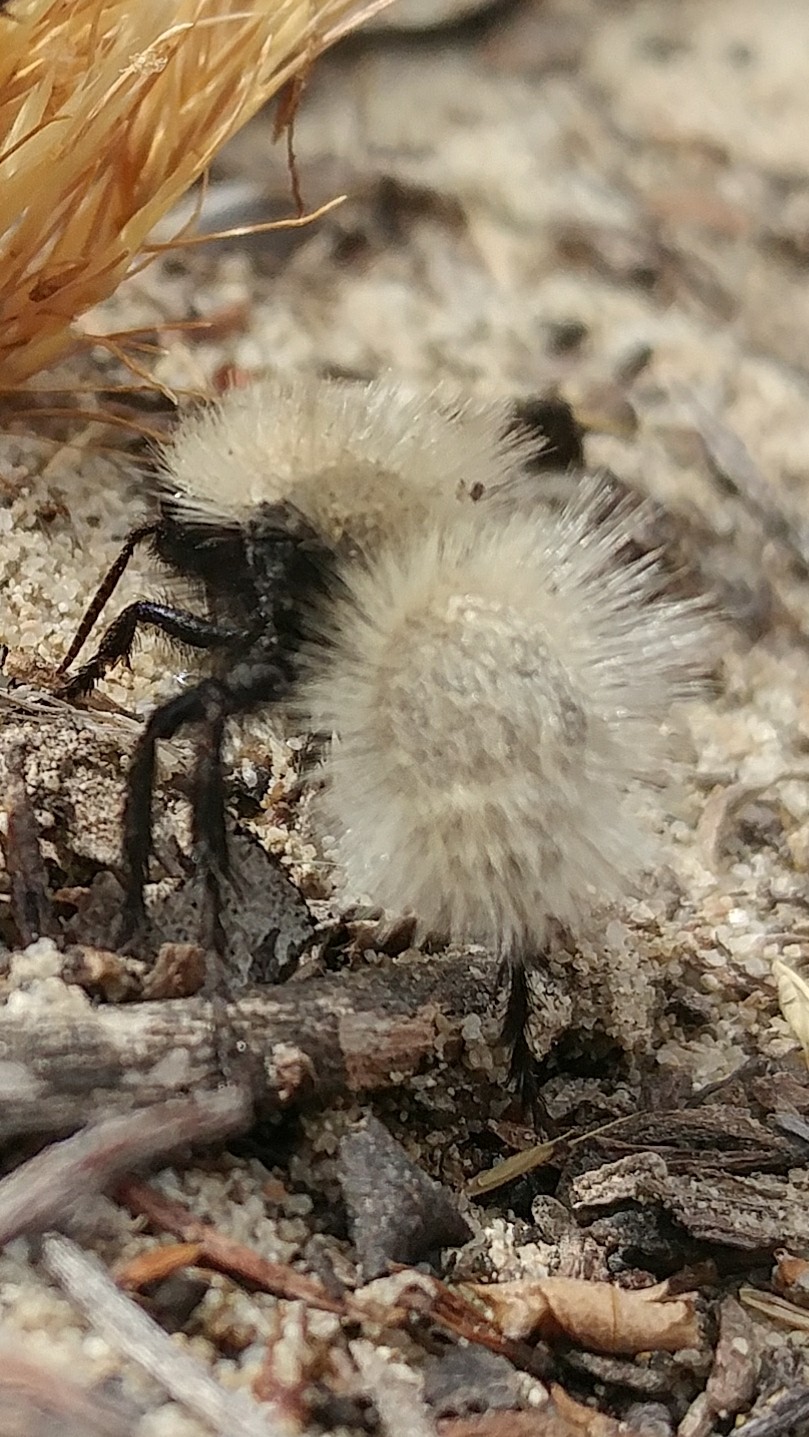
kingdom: Animalia
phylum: Arthropoda
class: Insecta
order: Hymenoptera
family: Mutillidae
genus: Dasymutilla
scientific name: Dasymutilla
